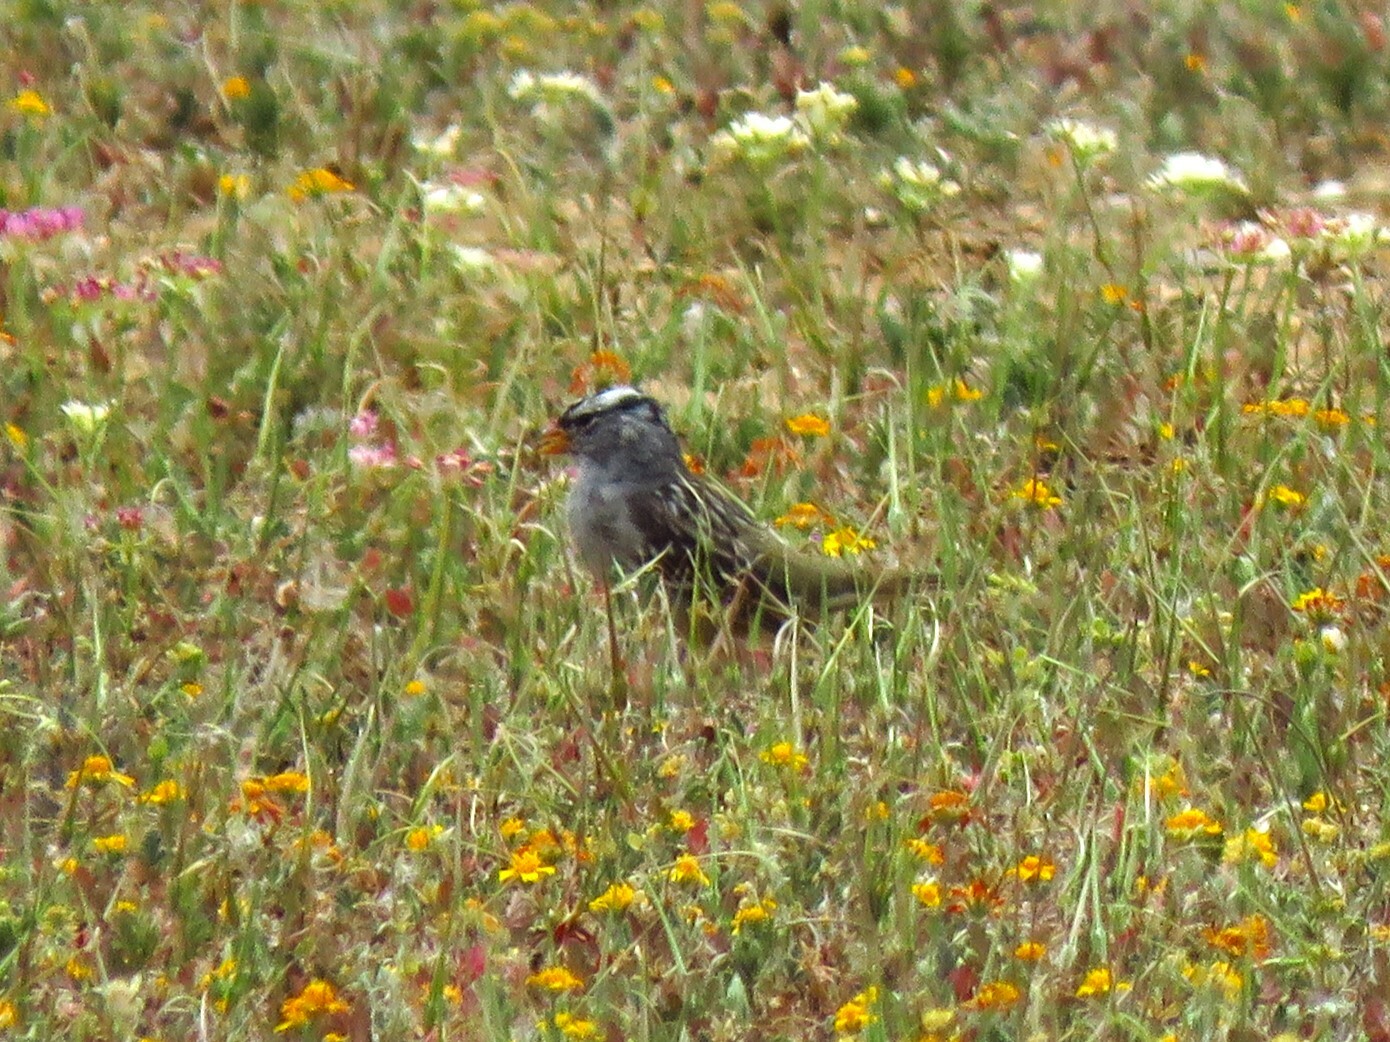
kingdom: Animalia
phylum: Chordata
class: Aves
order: Passeriformes
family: Passerellidae
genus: Zonotrichia
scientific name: Zonotrichia leucophrys
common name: White-crowned sparrow
